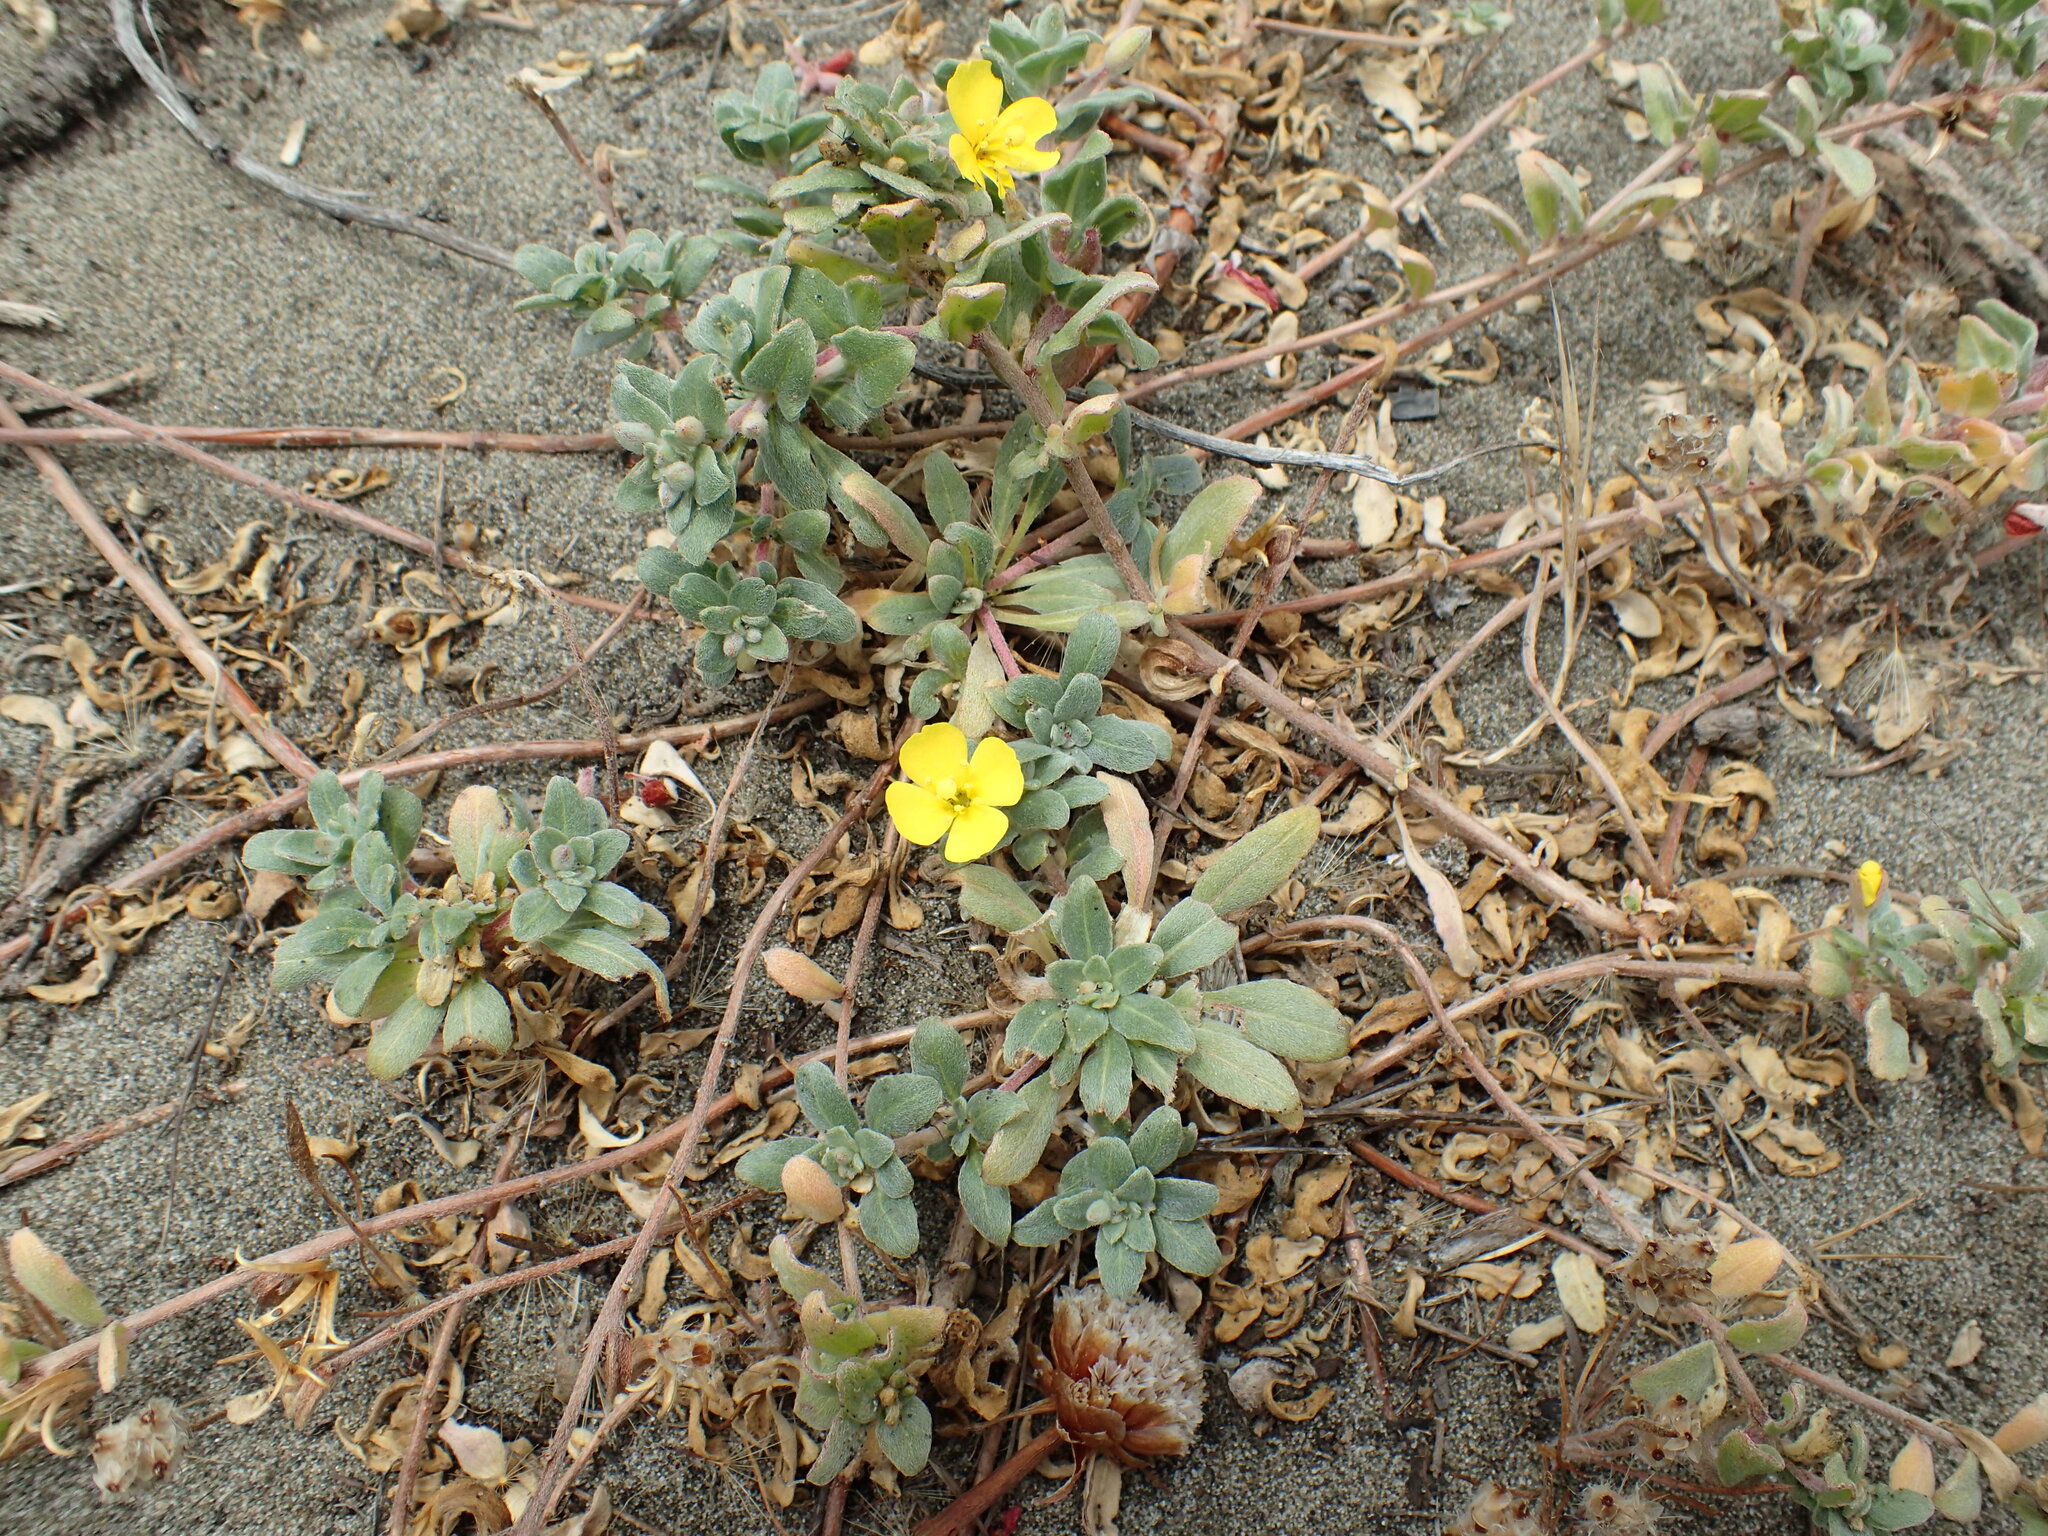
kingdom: Plantae
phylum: Tracheophyta
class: Magnoliopsida
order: Myrtales
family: Onagraceae
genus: Camissoniopsis
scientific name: Camissoniopsis cheiranthifolia
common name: Beach suncup
